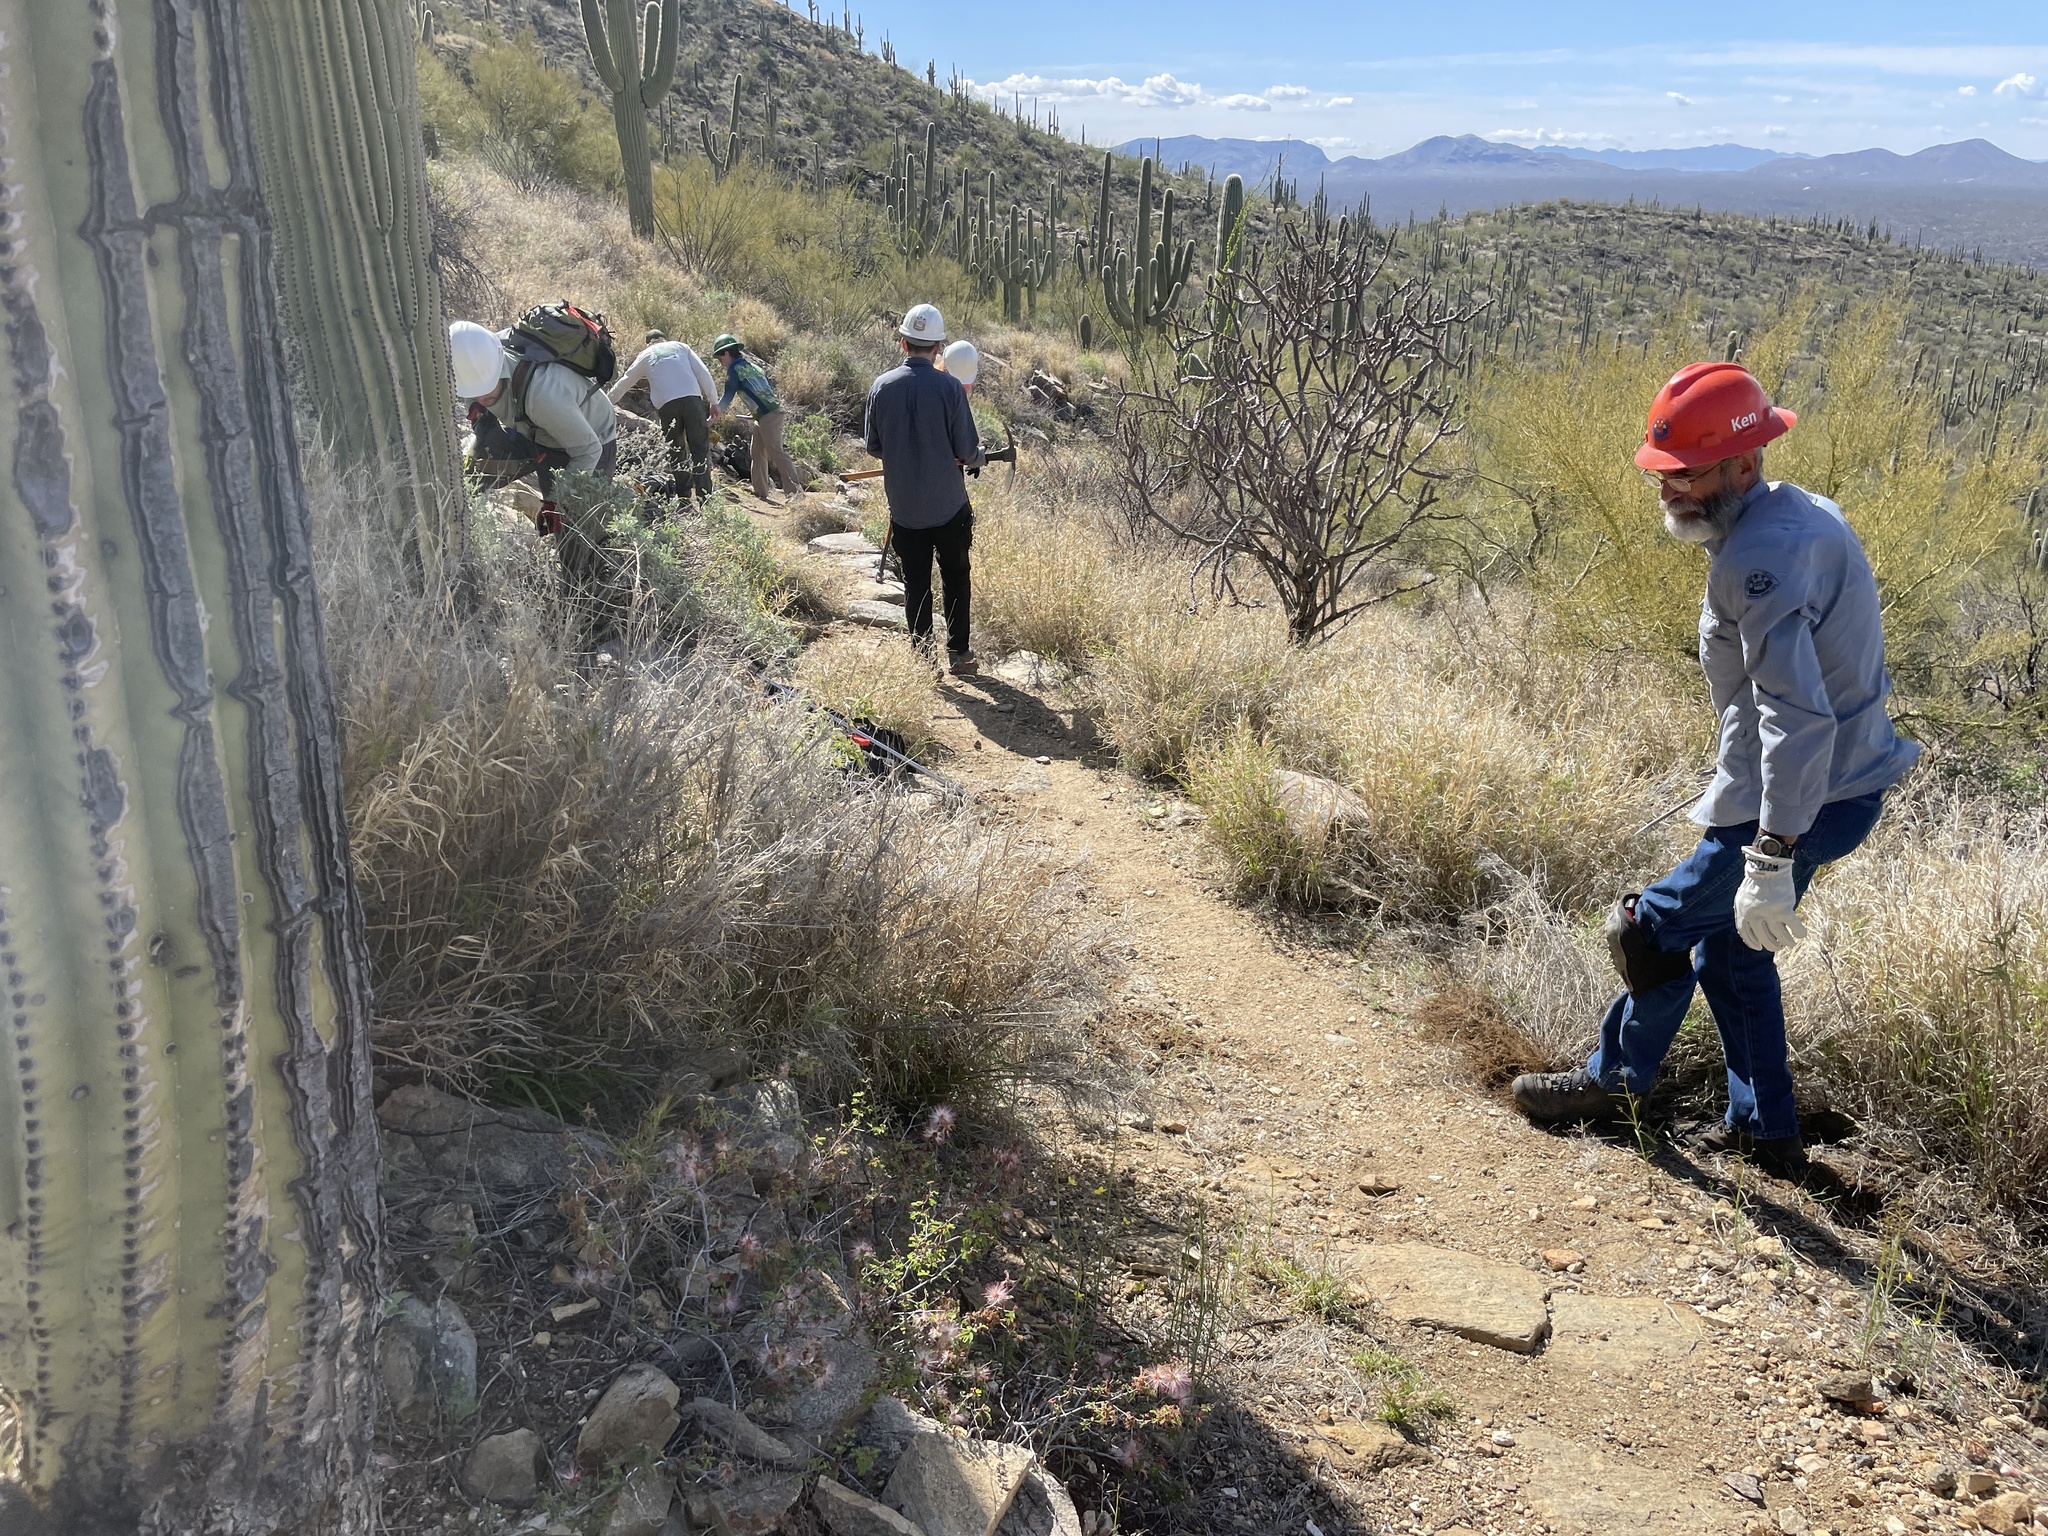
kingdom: Plantae
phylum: Tracheophyta
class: Liliopsida
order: Poales
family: Poaceae
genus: Cenchrus
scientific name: Cenchrus ciliaris
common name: Buffelgrass
